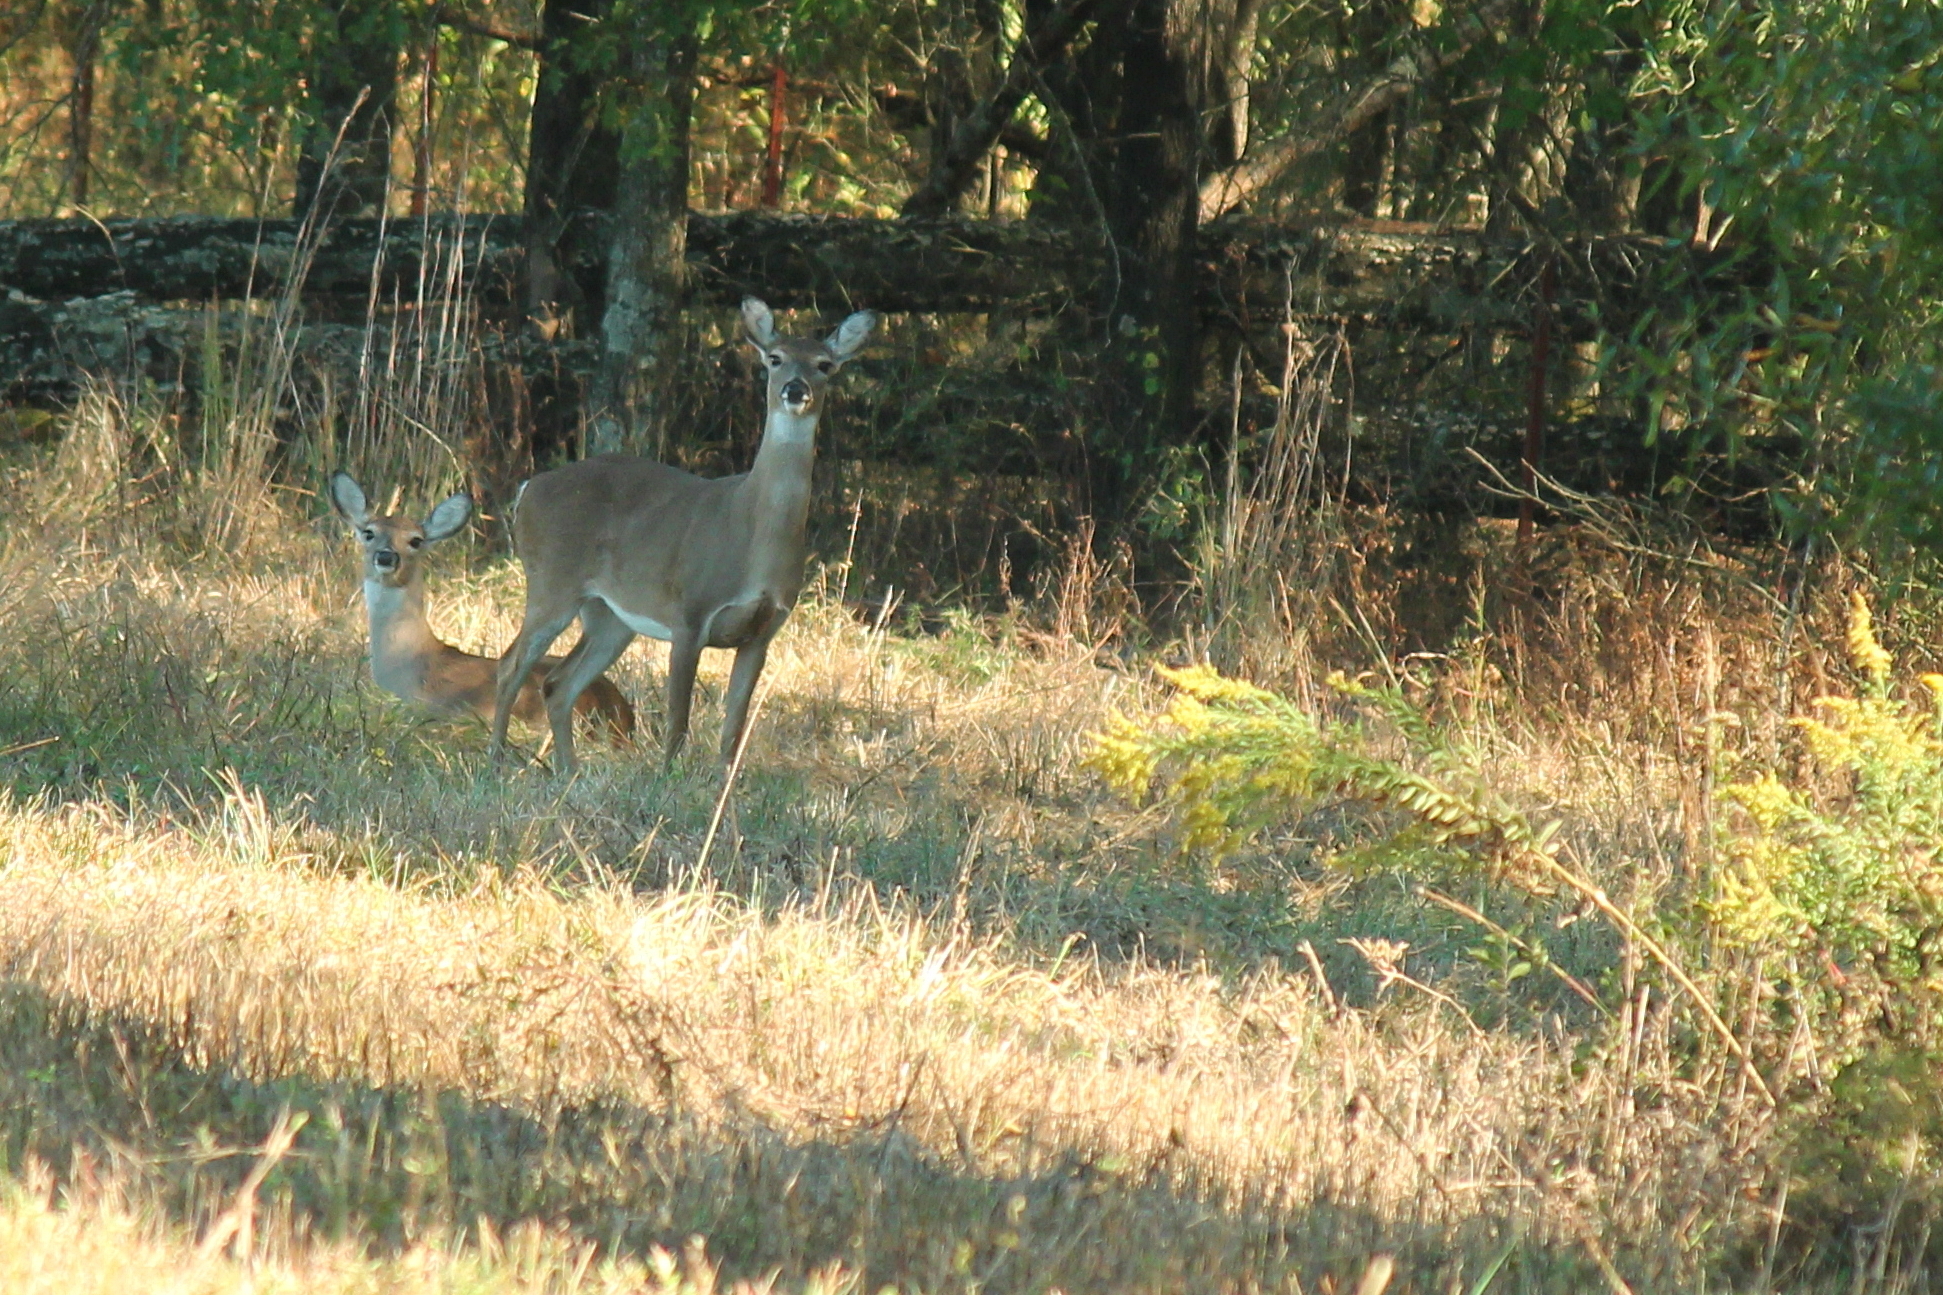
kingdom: Animalia
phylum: Chordata
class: Mammalia
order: Artiodactyla
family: Cervidae
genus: Odocoileus
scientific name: Odocoileus virginianus
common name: White-tailed deer
